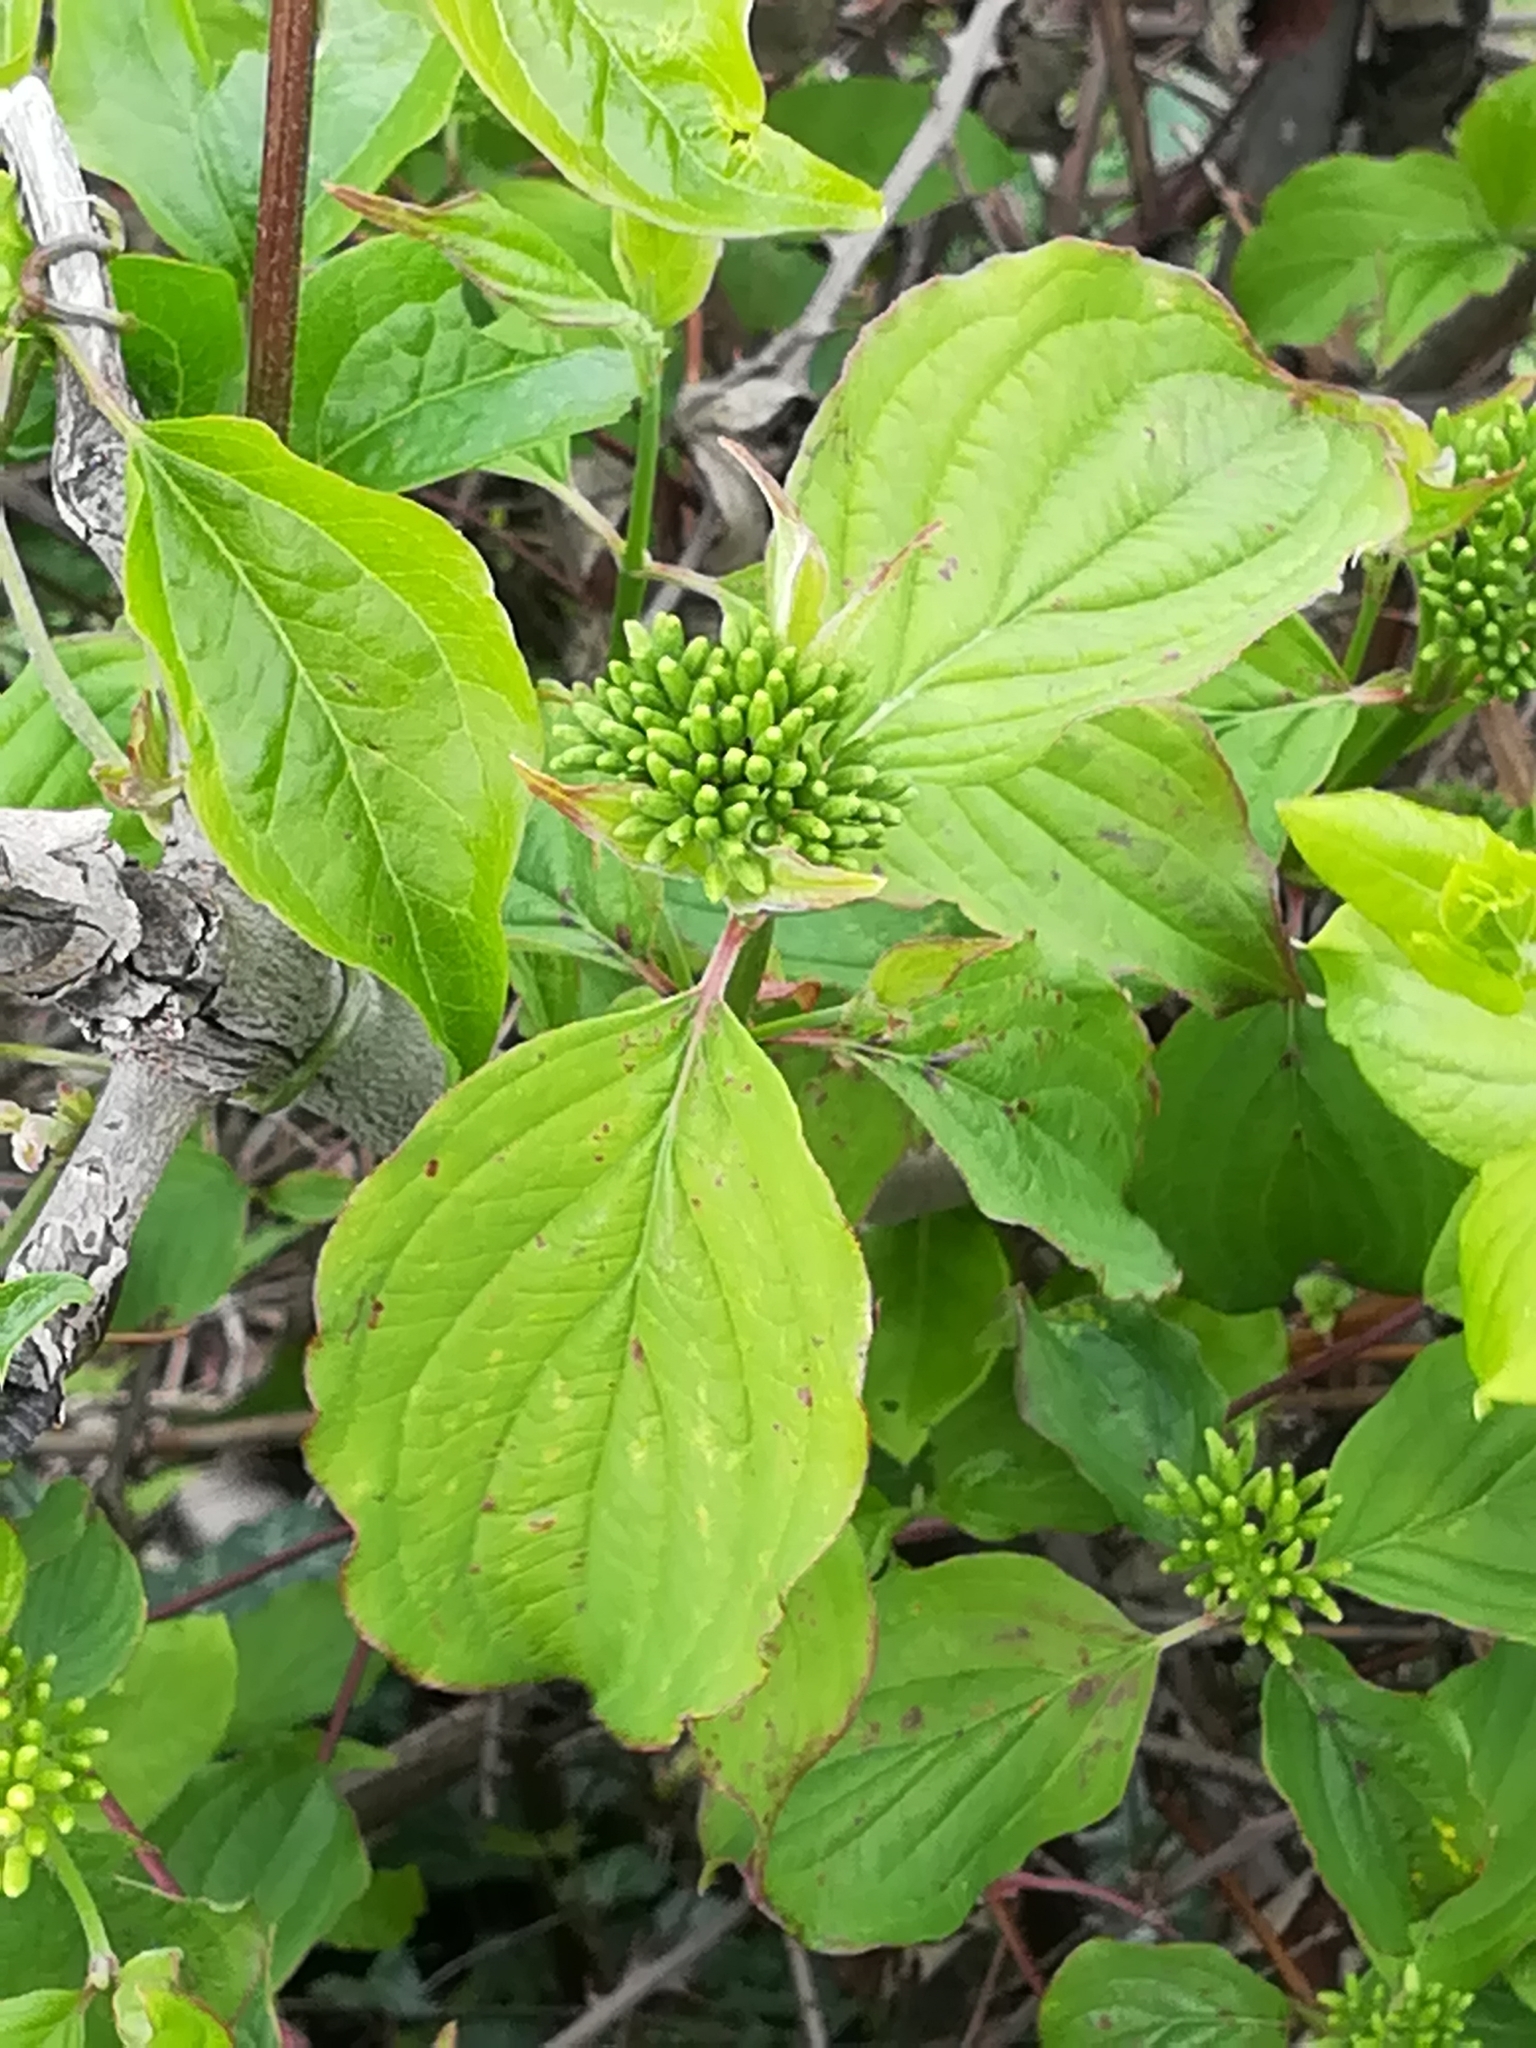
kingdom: Plantae
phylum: Tracheophyta
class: Magnoliopsida
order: Cornales
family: Cornaceae
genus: Cornus
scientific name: Cornus sanguinea
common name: Dogwood
